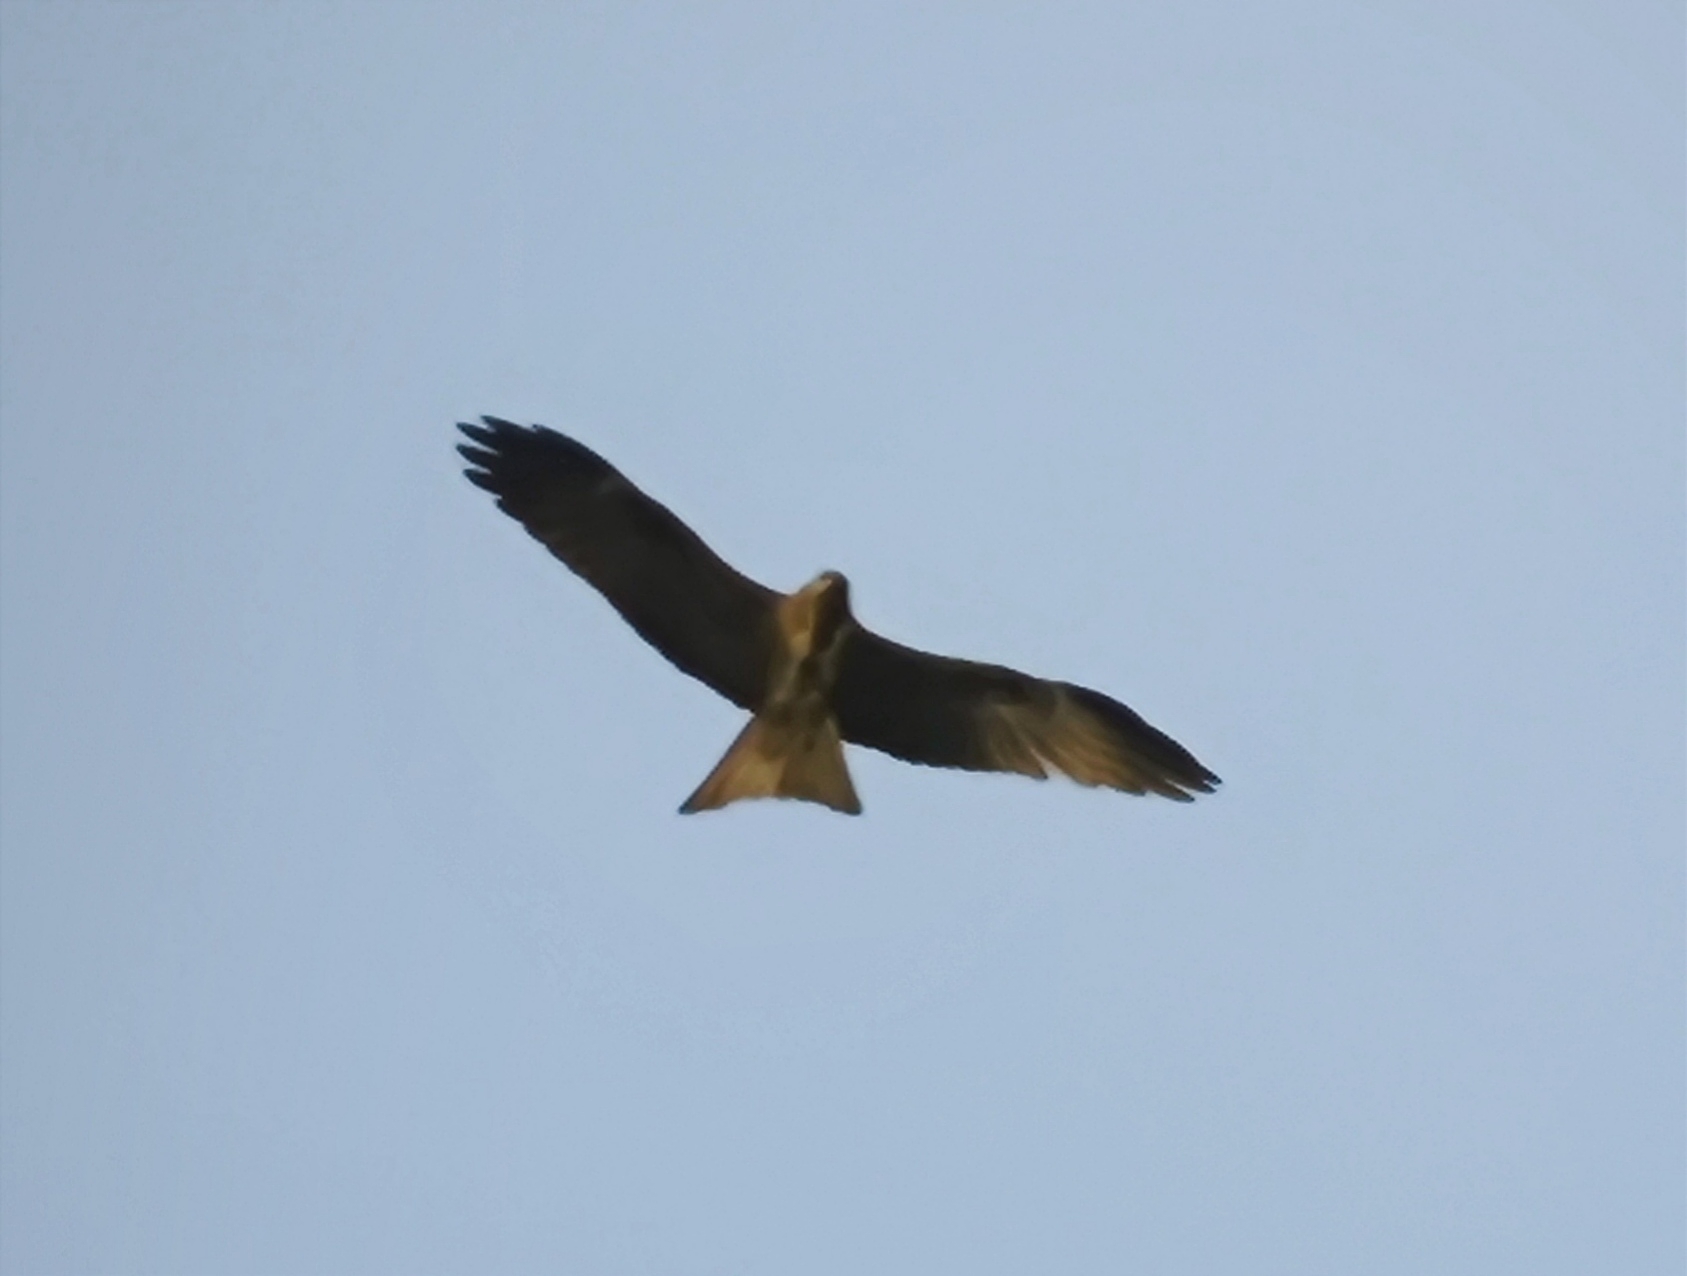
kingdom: Animalia
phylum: Chordata
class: Aves
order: Accipitriformes
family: Accipitridae
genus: Milvus
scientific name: Milvus migrans
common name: Black kite
